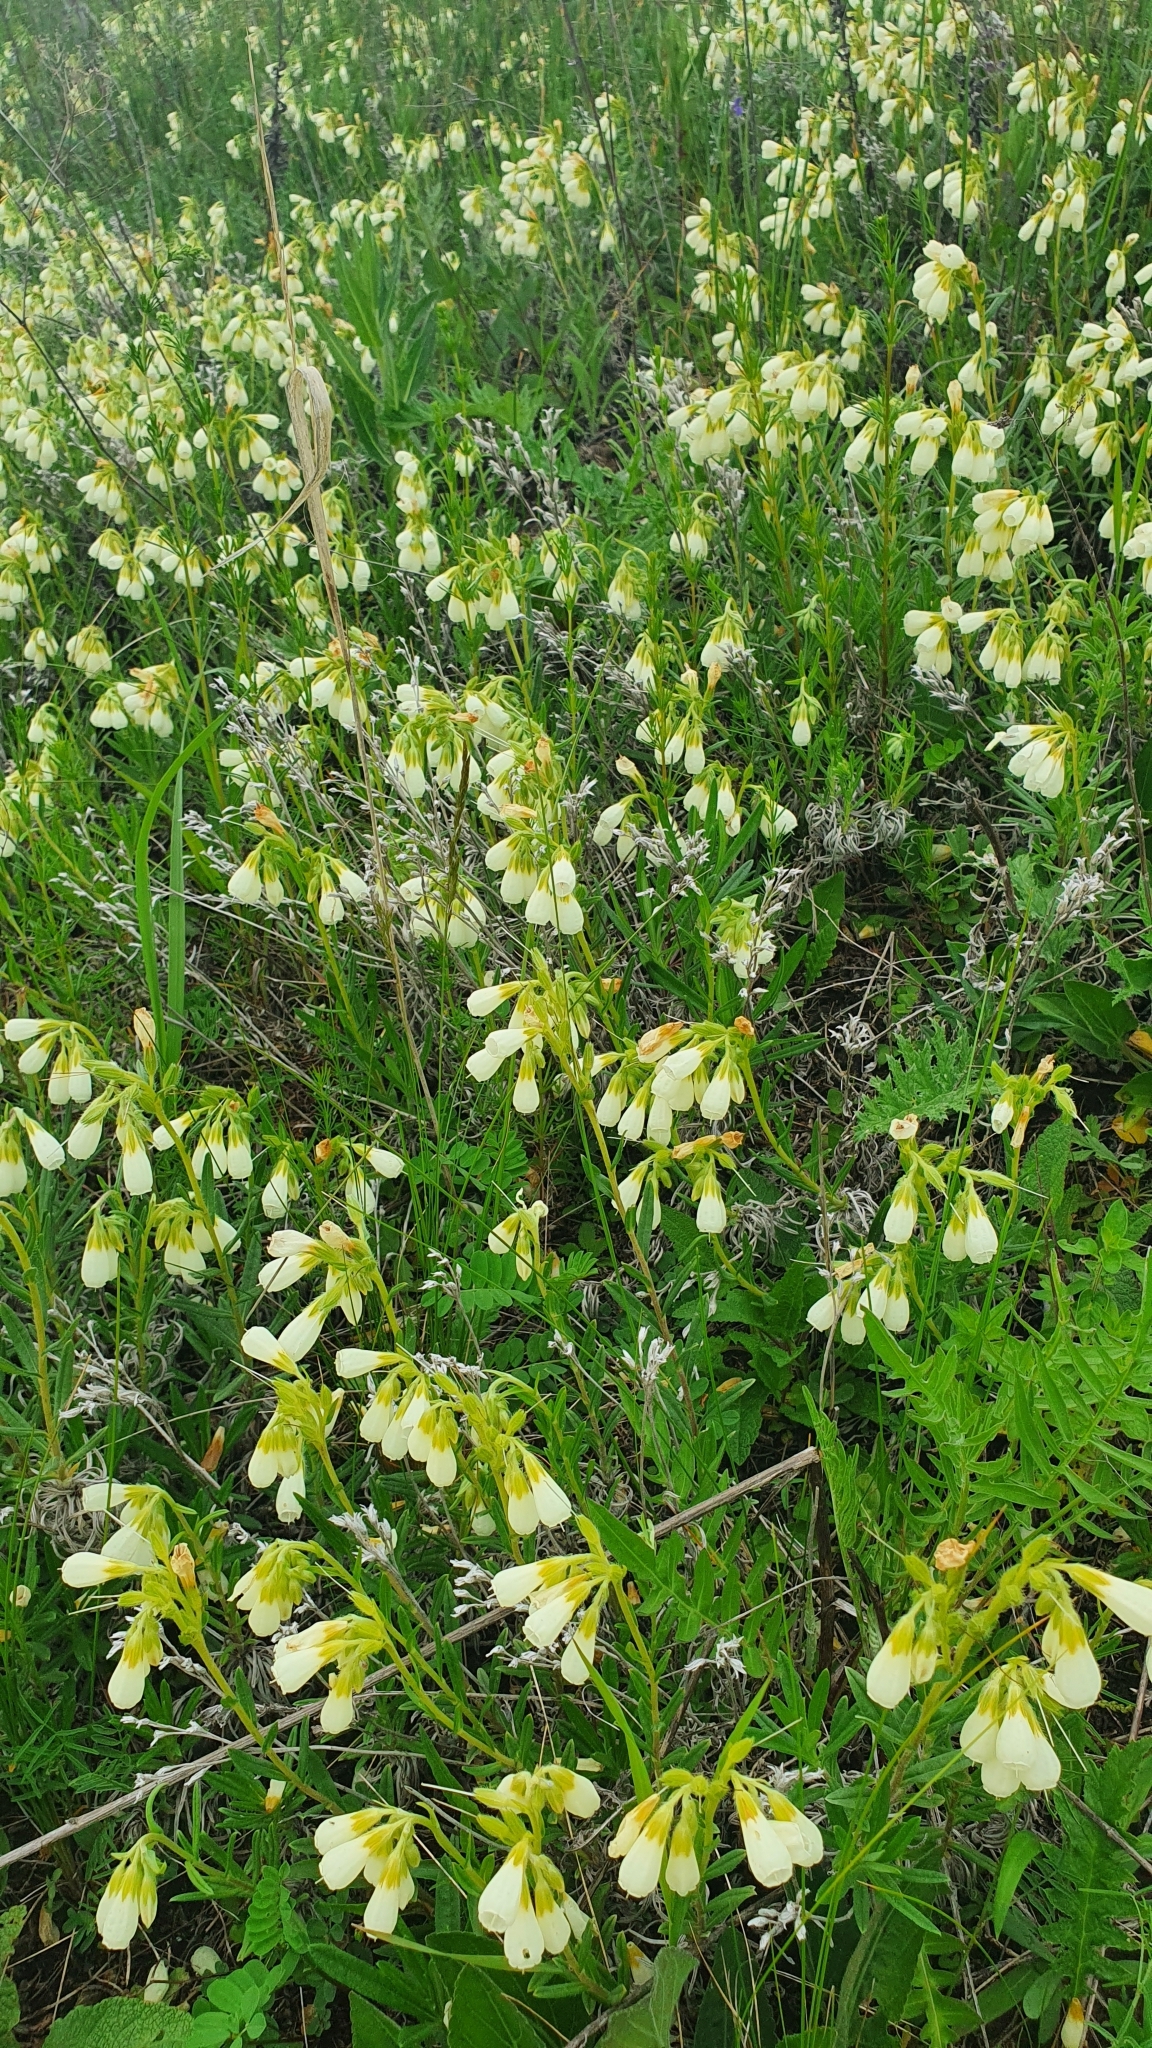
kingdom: Plantae
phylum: Tracheophyta
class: Magnoliopsida
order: Boraginales
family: Boraginaceae
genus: Onosma
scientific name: Onosma simplicissima
